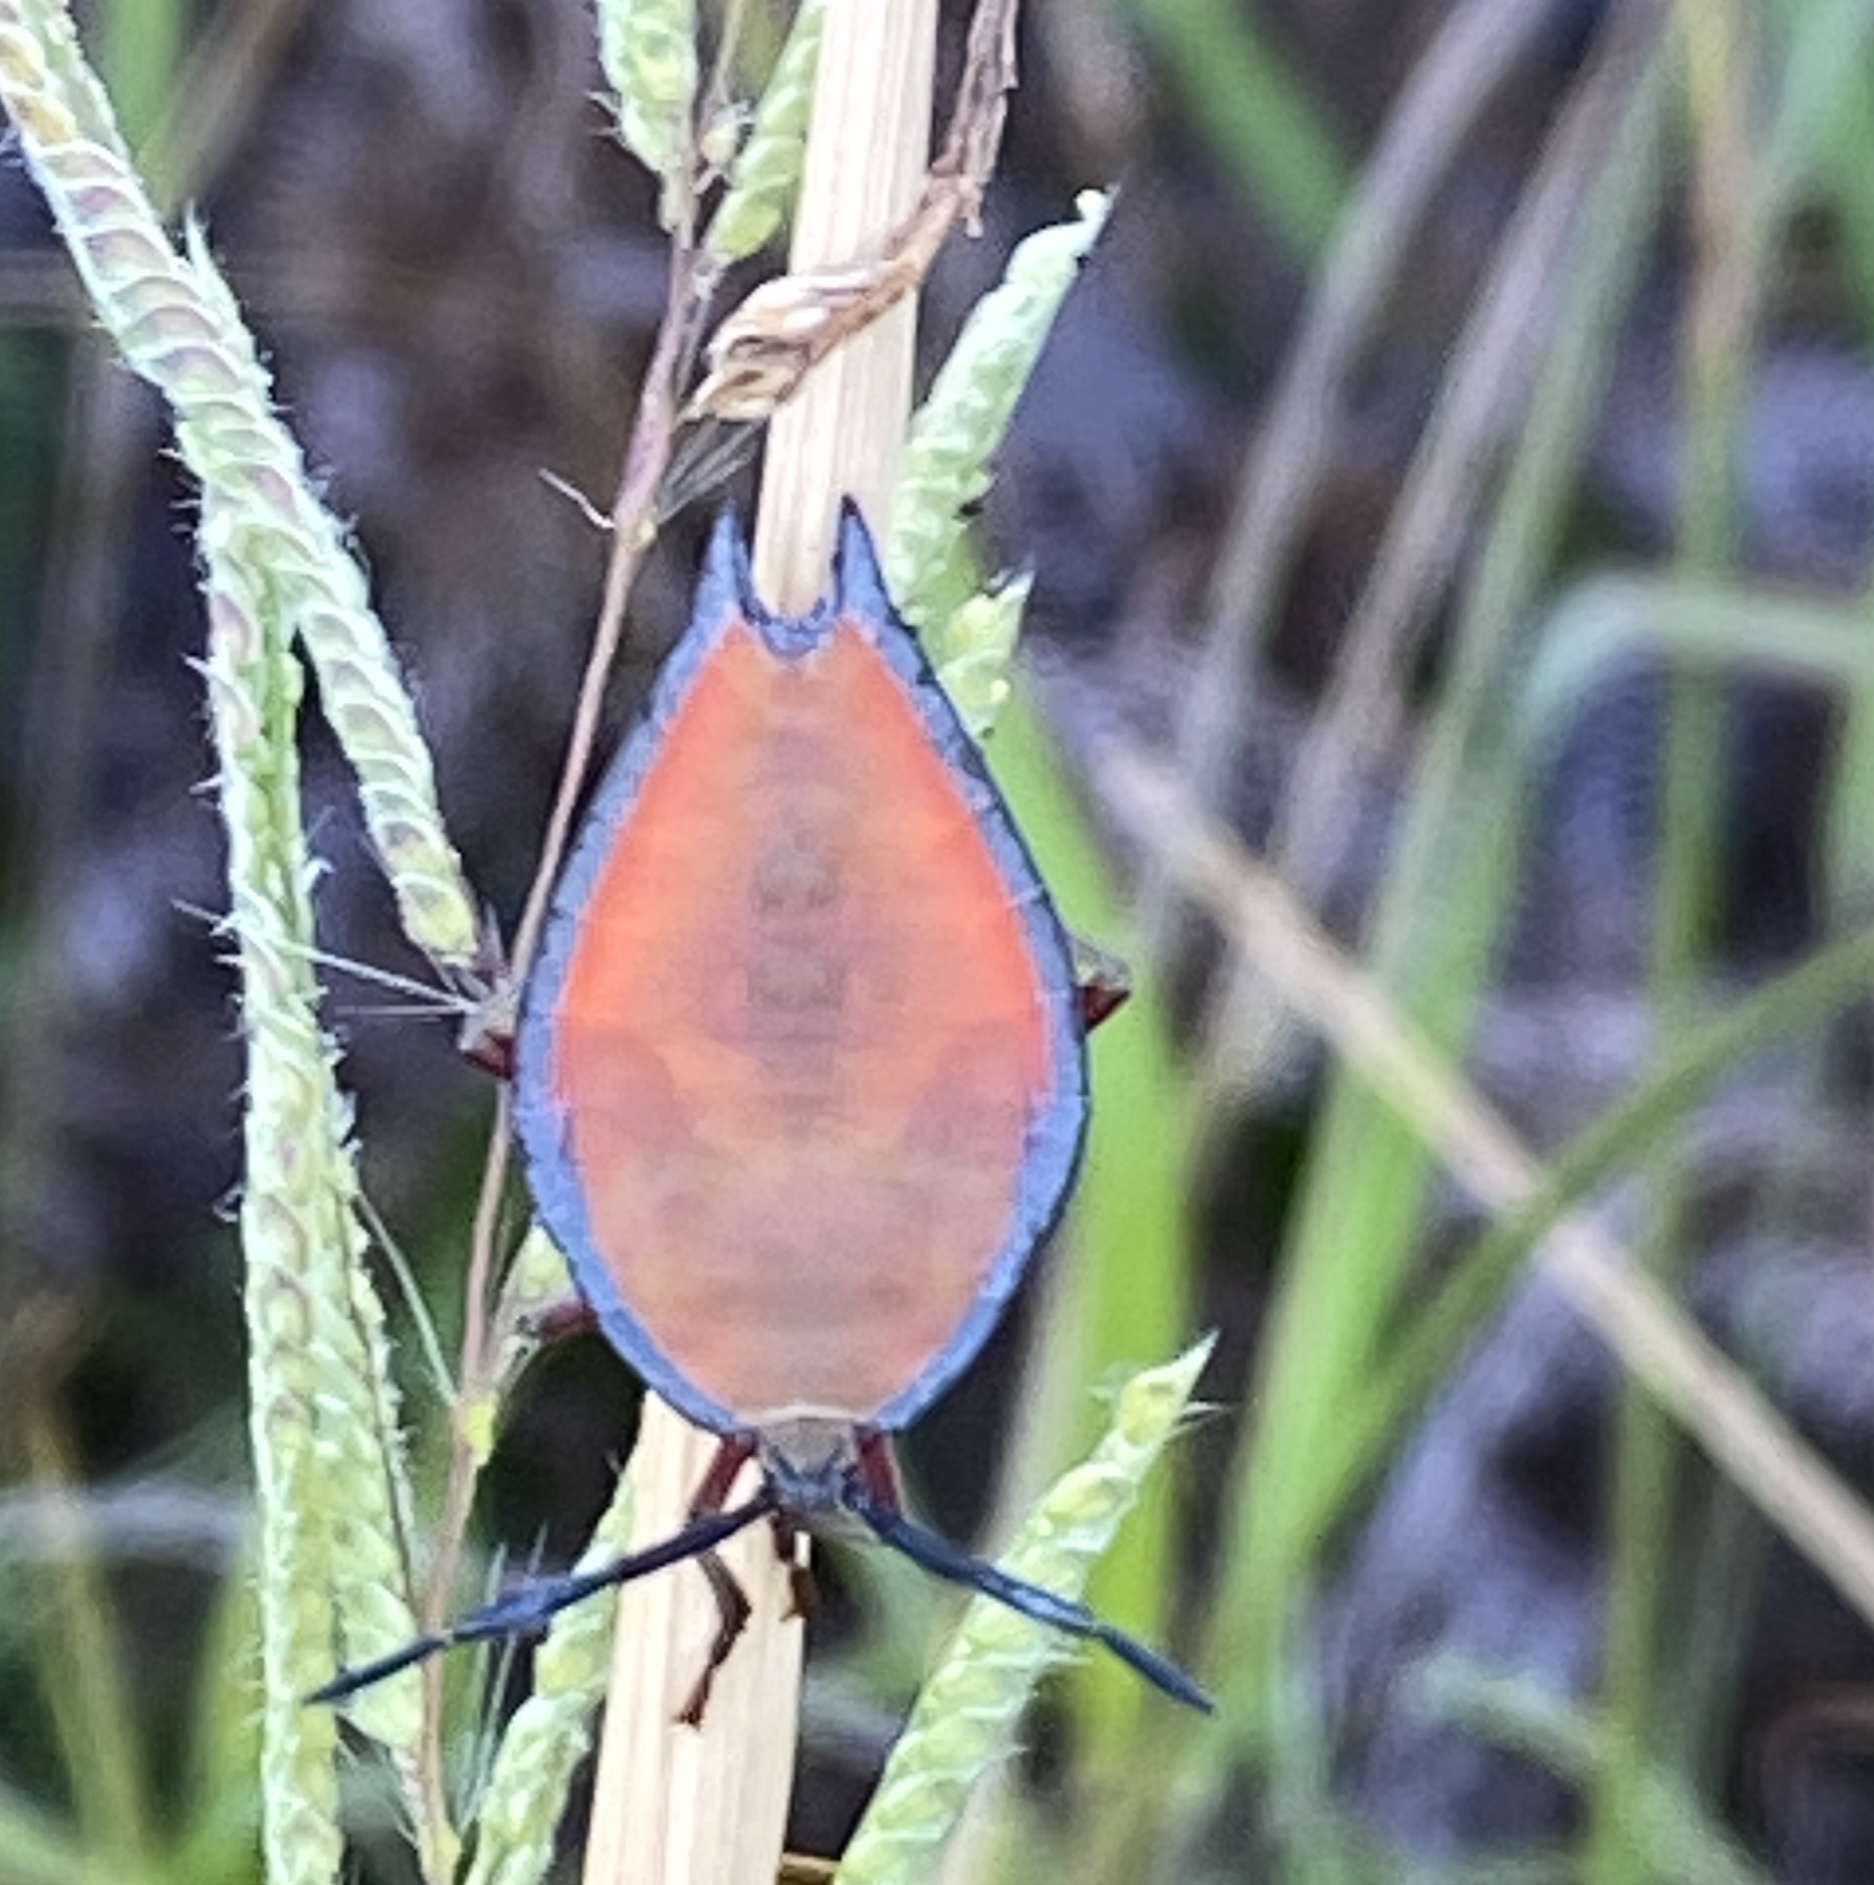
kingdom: Animalia
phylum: Arthropoda
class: Insecta
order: Hemiptera
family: Tessaratomidae
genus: Lyramorpha
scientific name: Lyramorpha rosea
